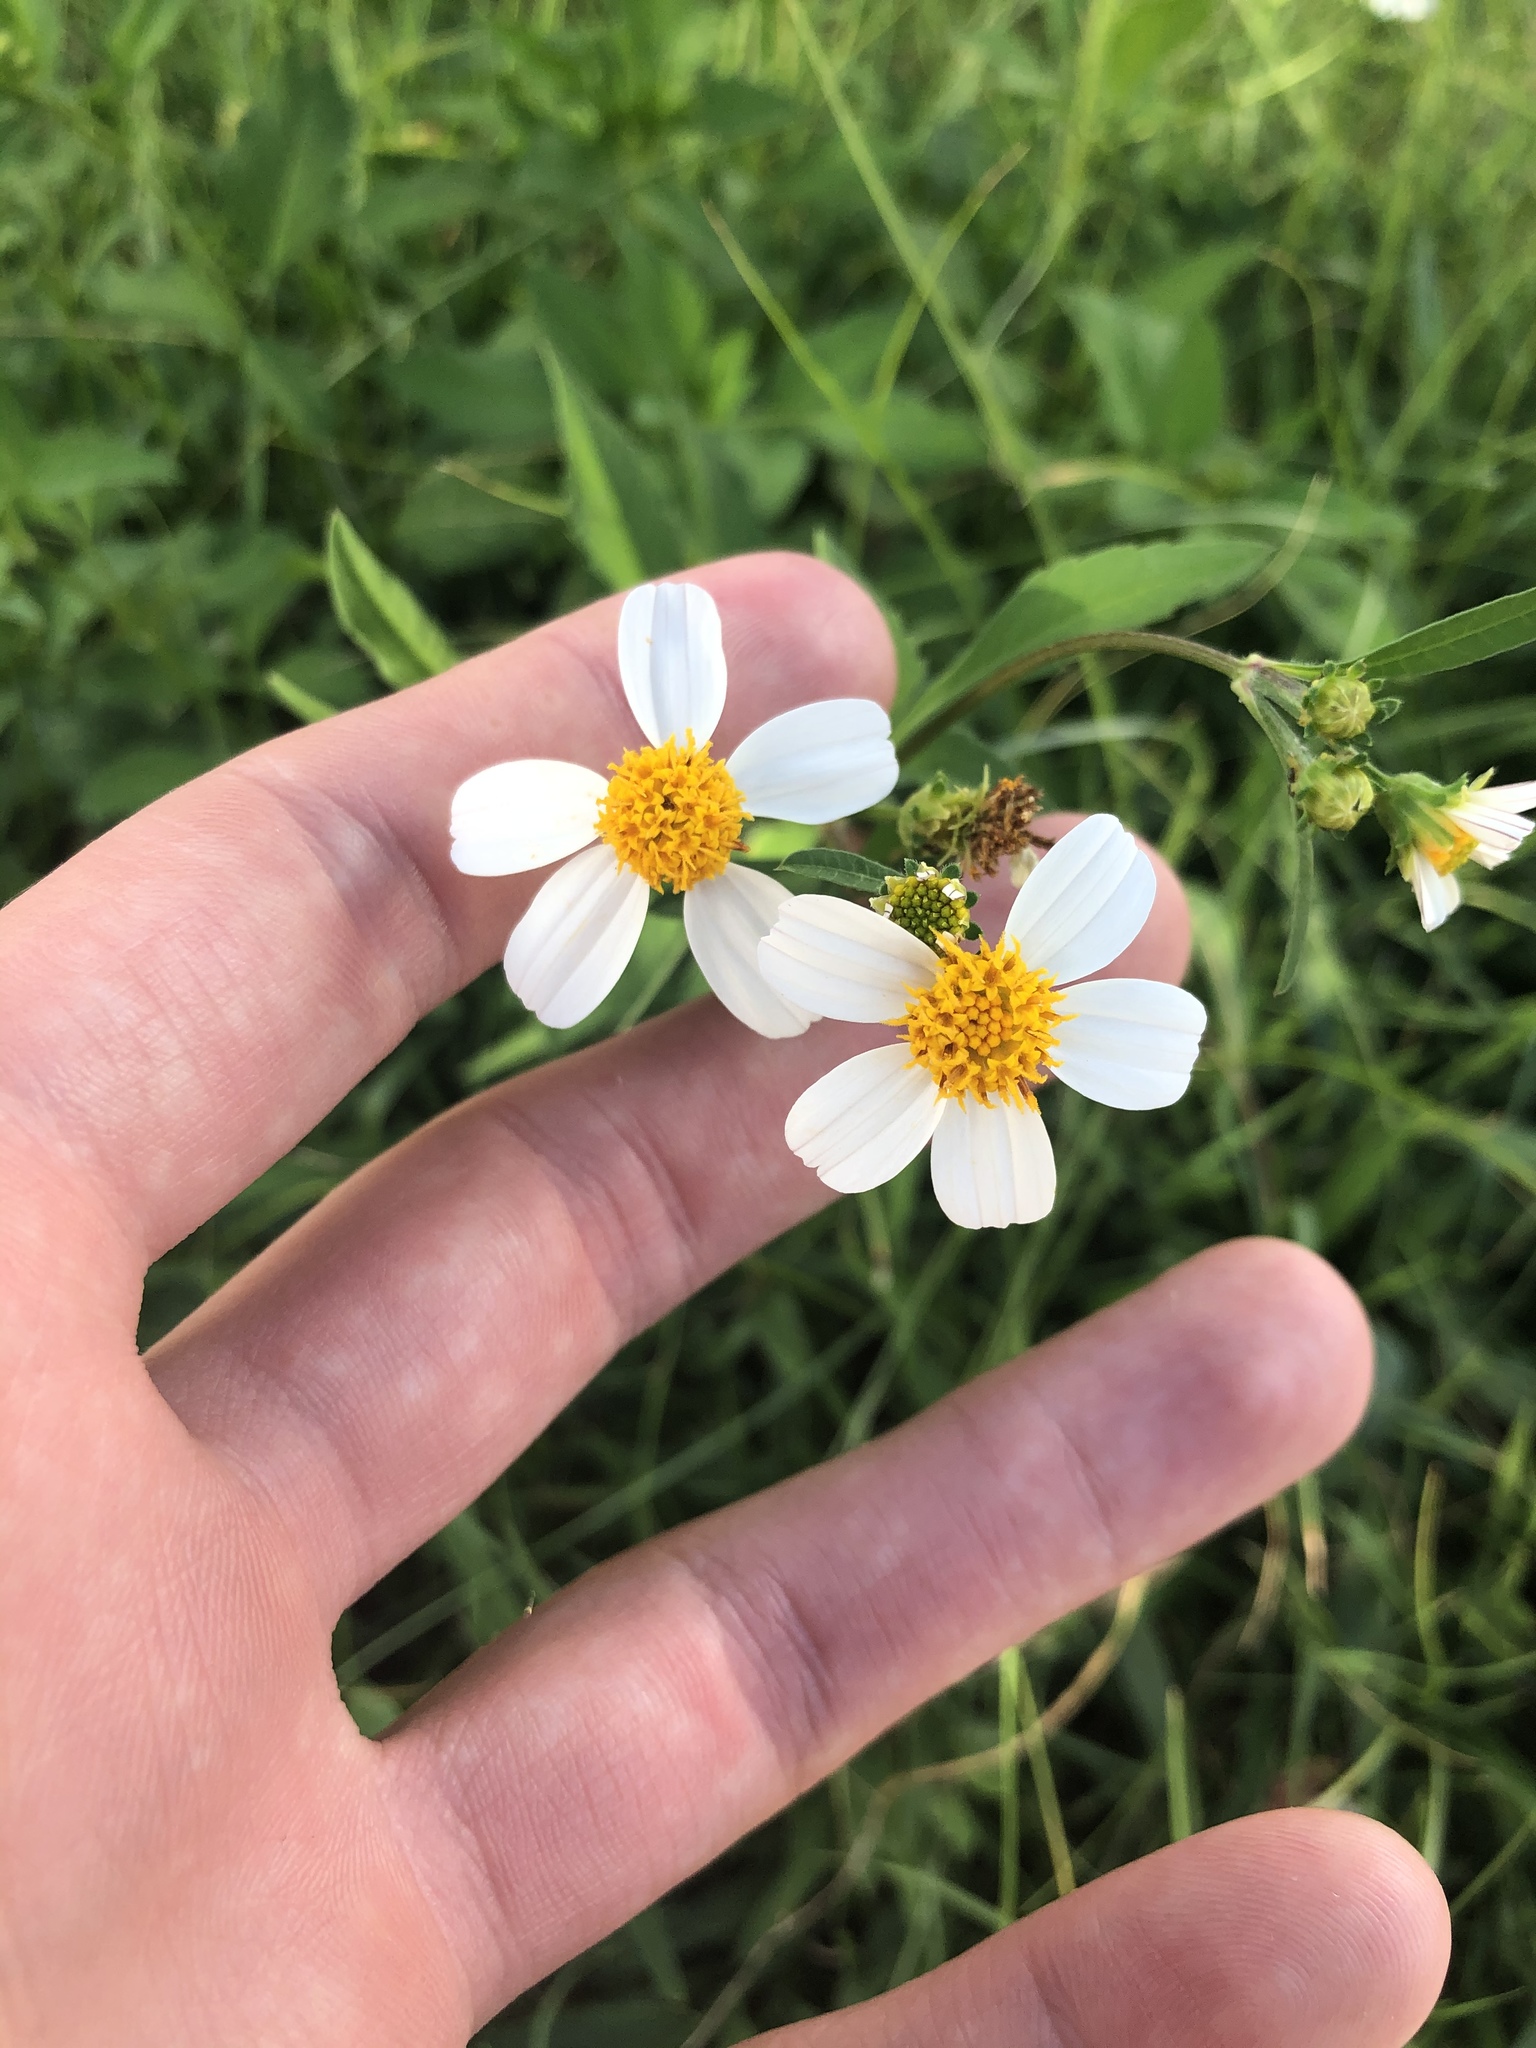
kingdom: Plantae
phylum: Tracheophyta
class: Magnoliopsida
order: Asterales
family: Asteraceae
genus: Bidens
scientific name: Bidens alba
